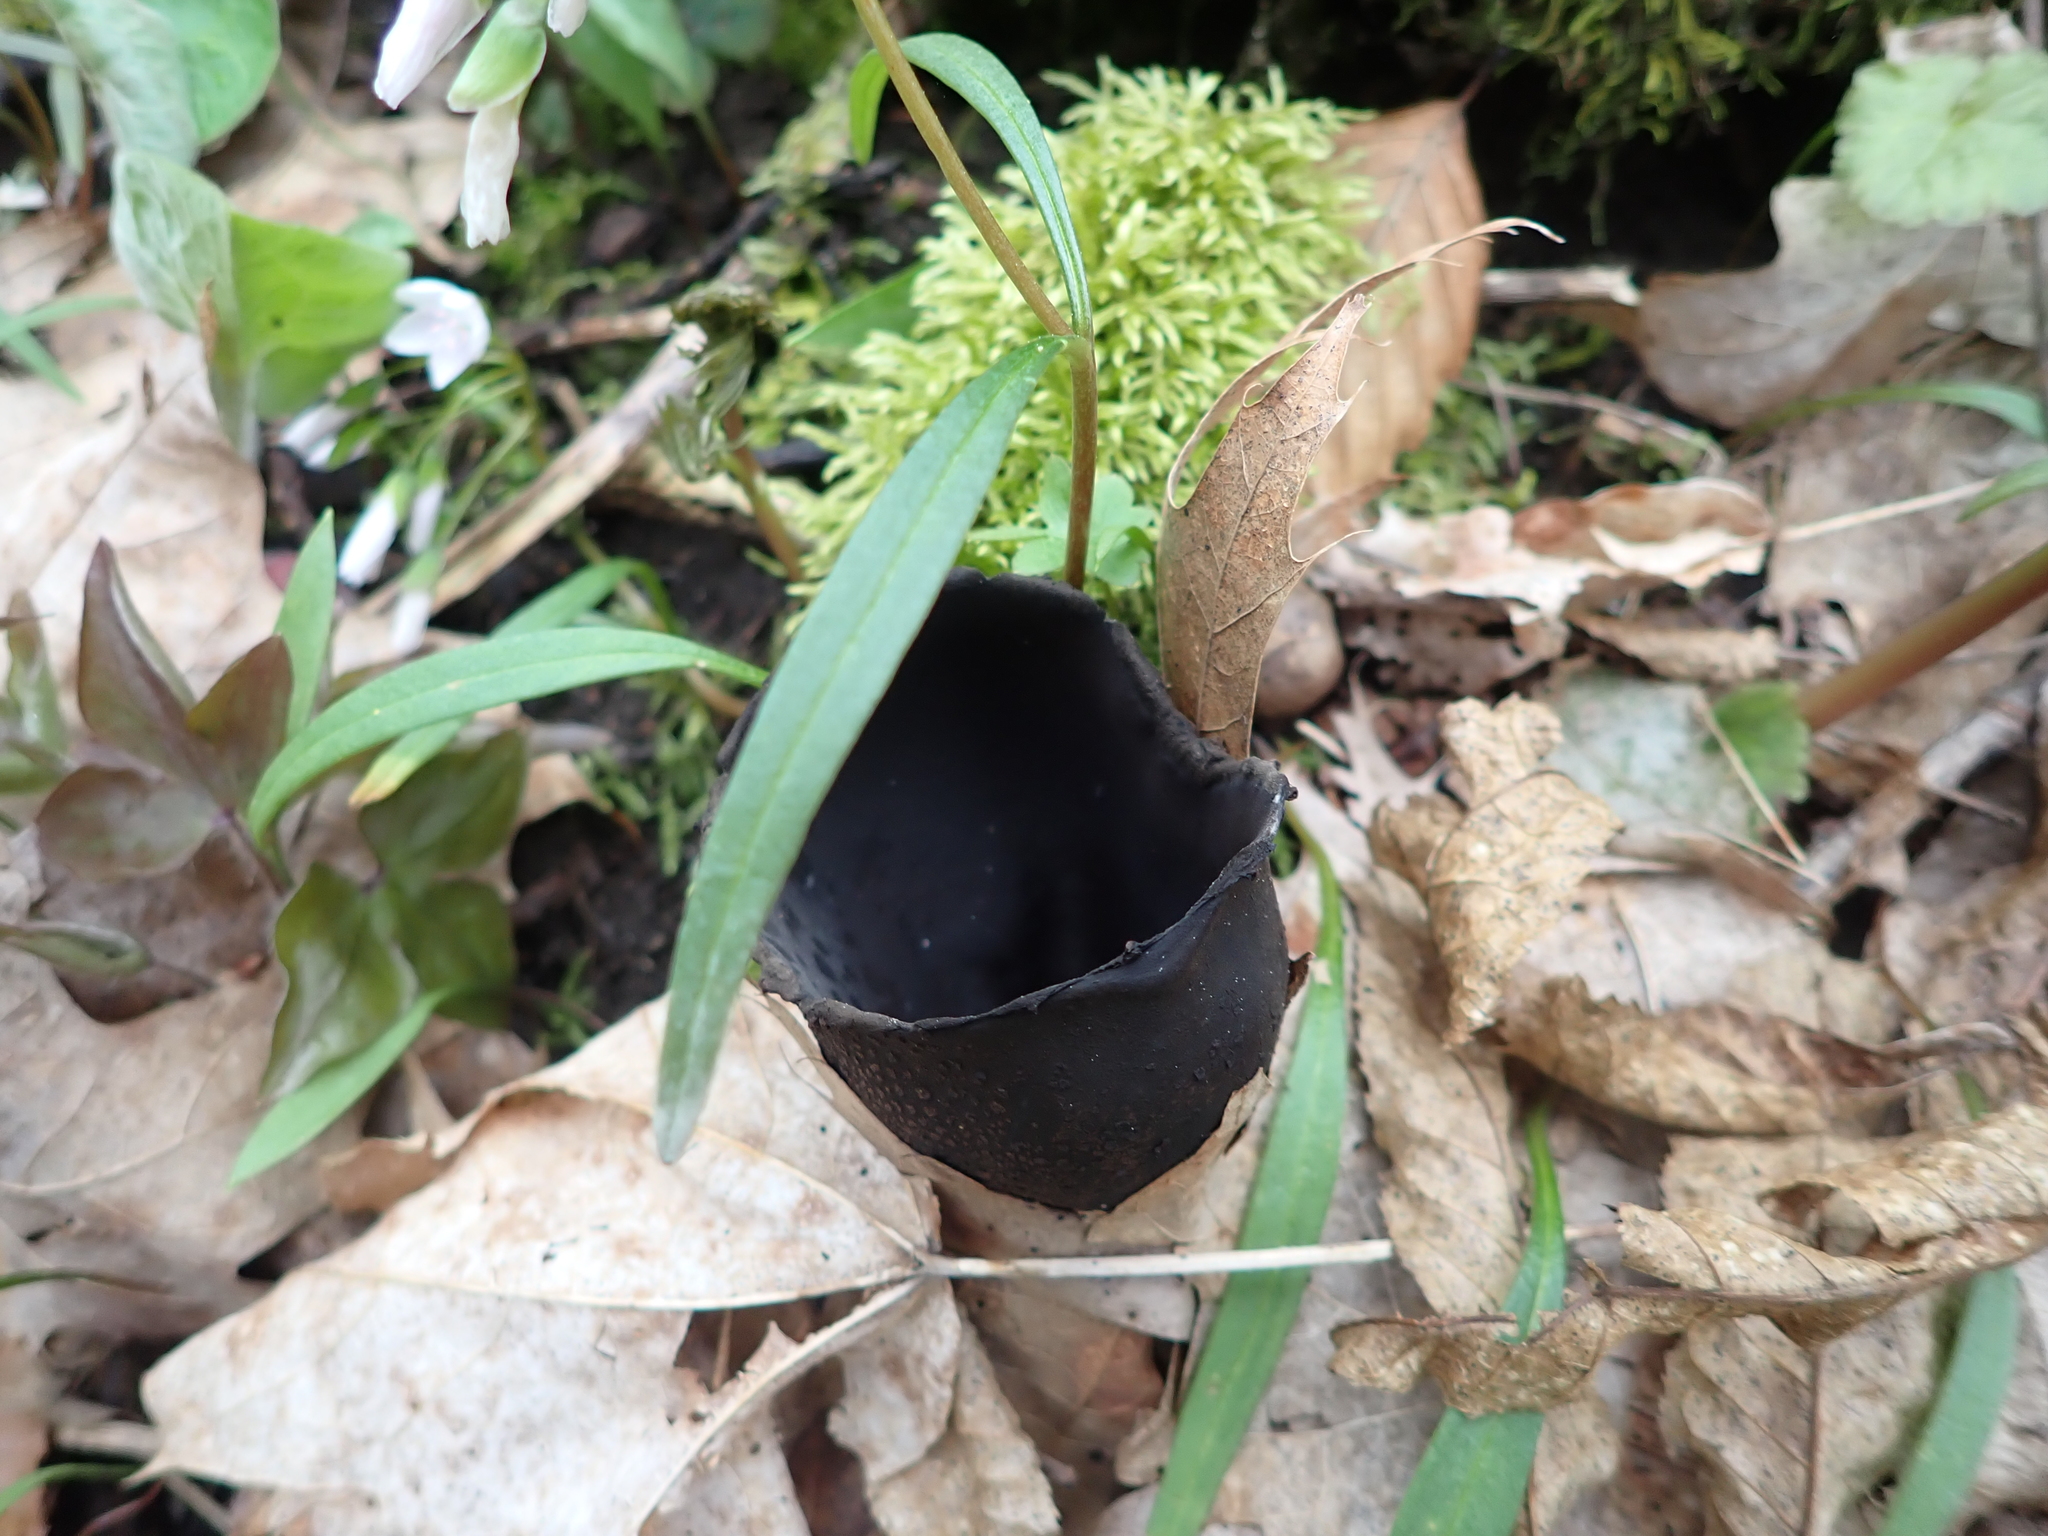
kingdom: Fungi
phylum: Ascomycota
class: Pezizomycetes
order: Pezizales
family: Sarcosomataceae
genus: Urnula
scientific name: Urnula craterium
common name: Devil's urn
